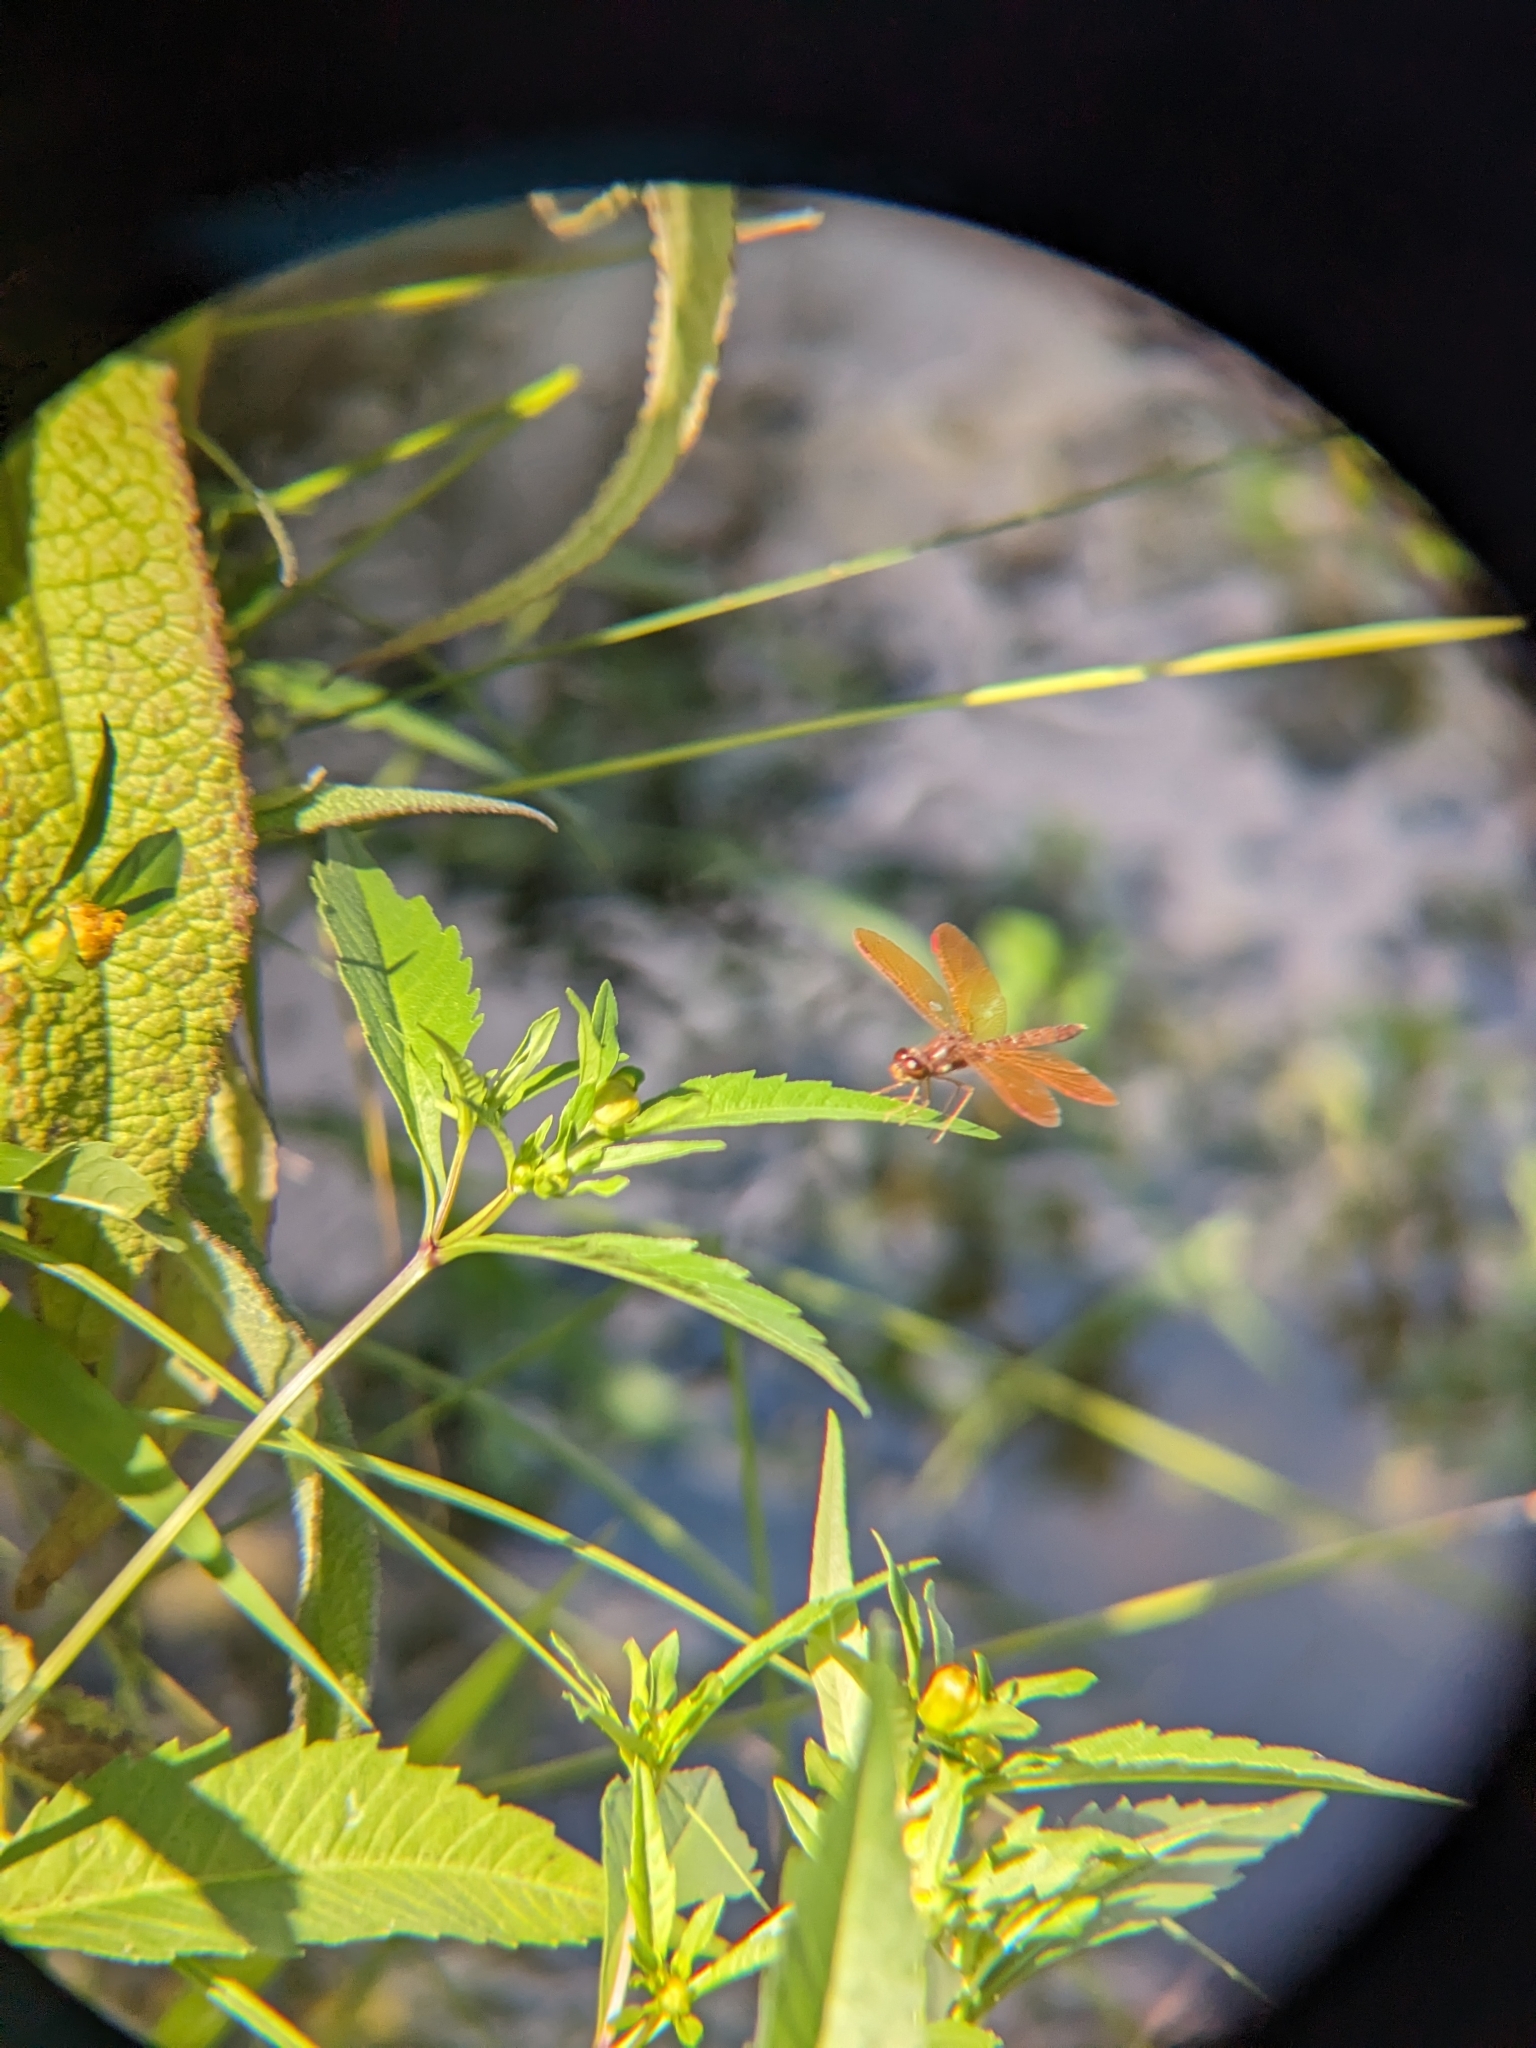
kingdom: Animalia
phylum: Arthropoda
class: Insecta
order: Odonata
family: Libellulidae
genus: Perithemis
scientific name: Perithemis tenera
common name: Eastern amberwing
